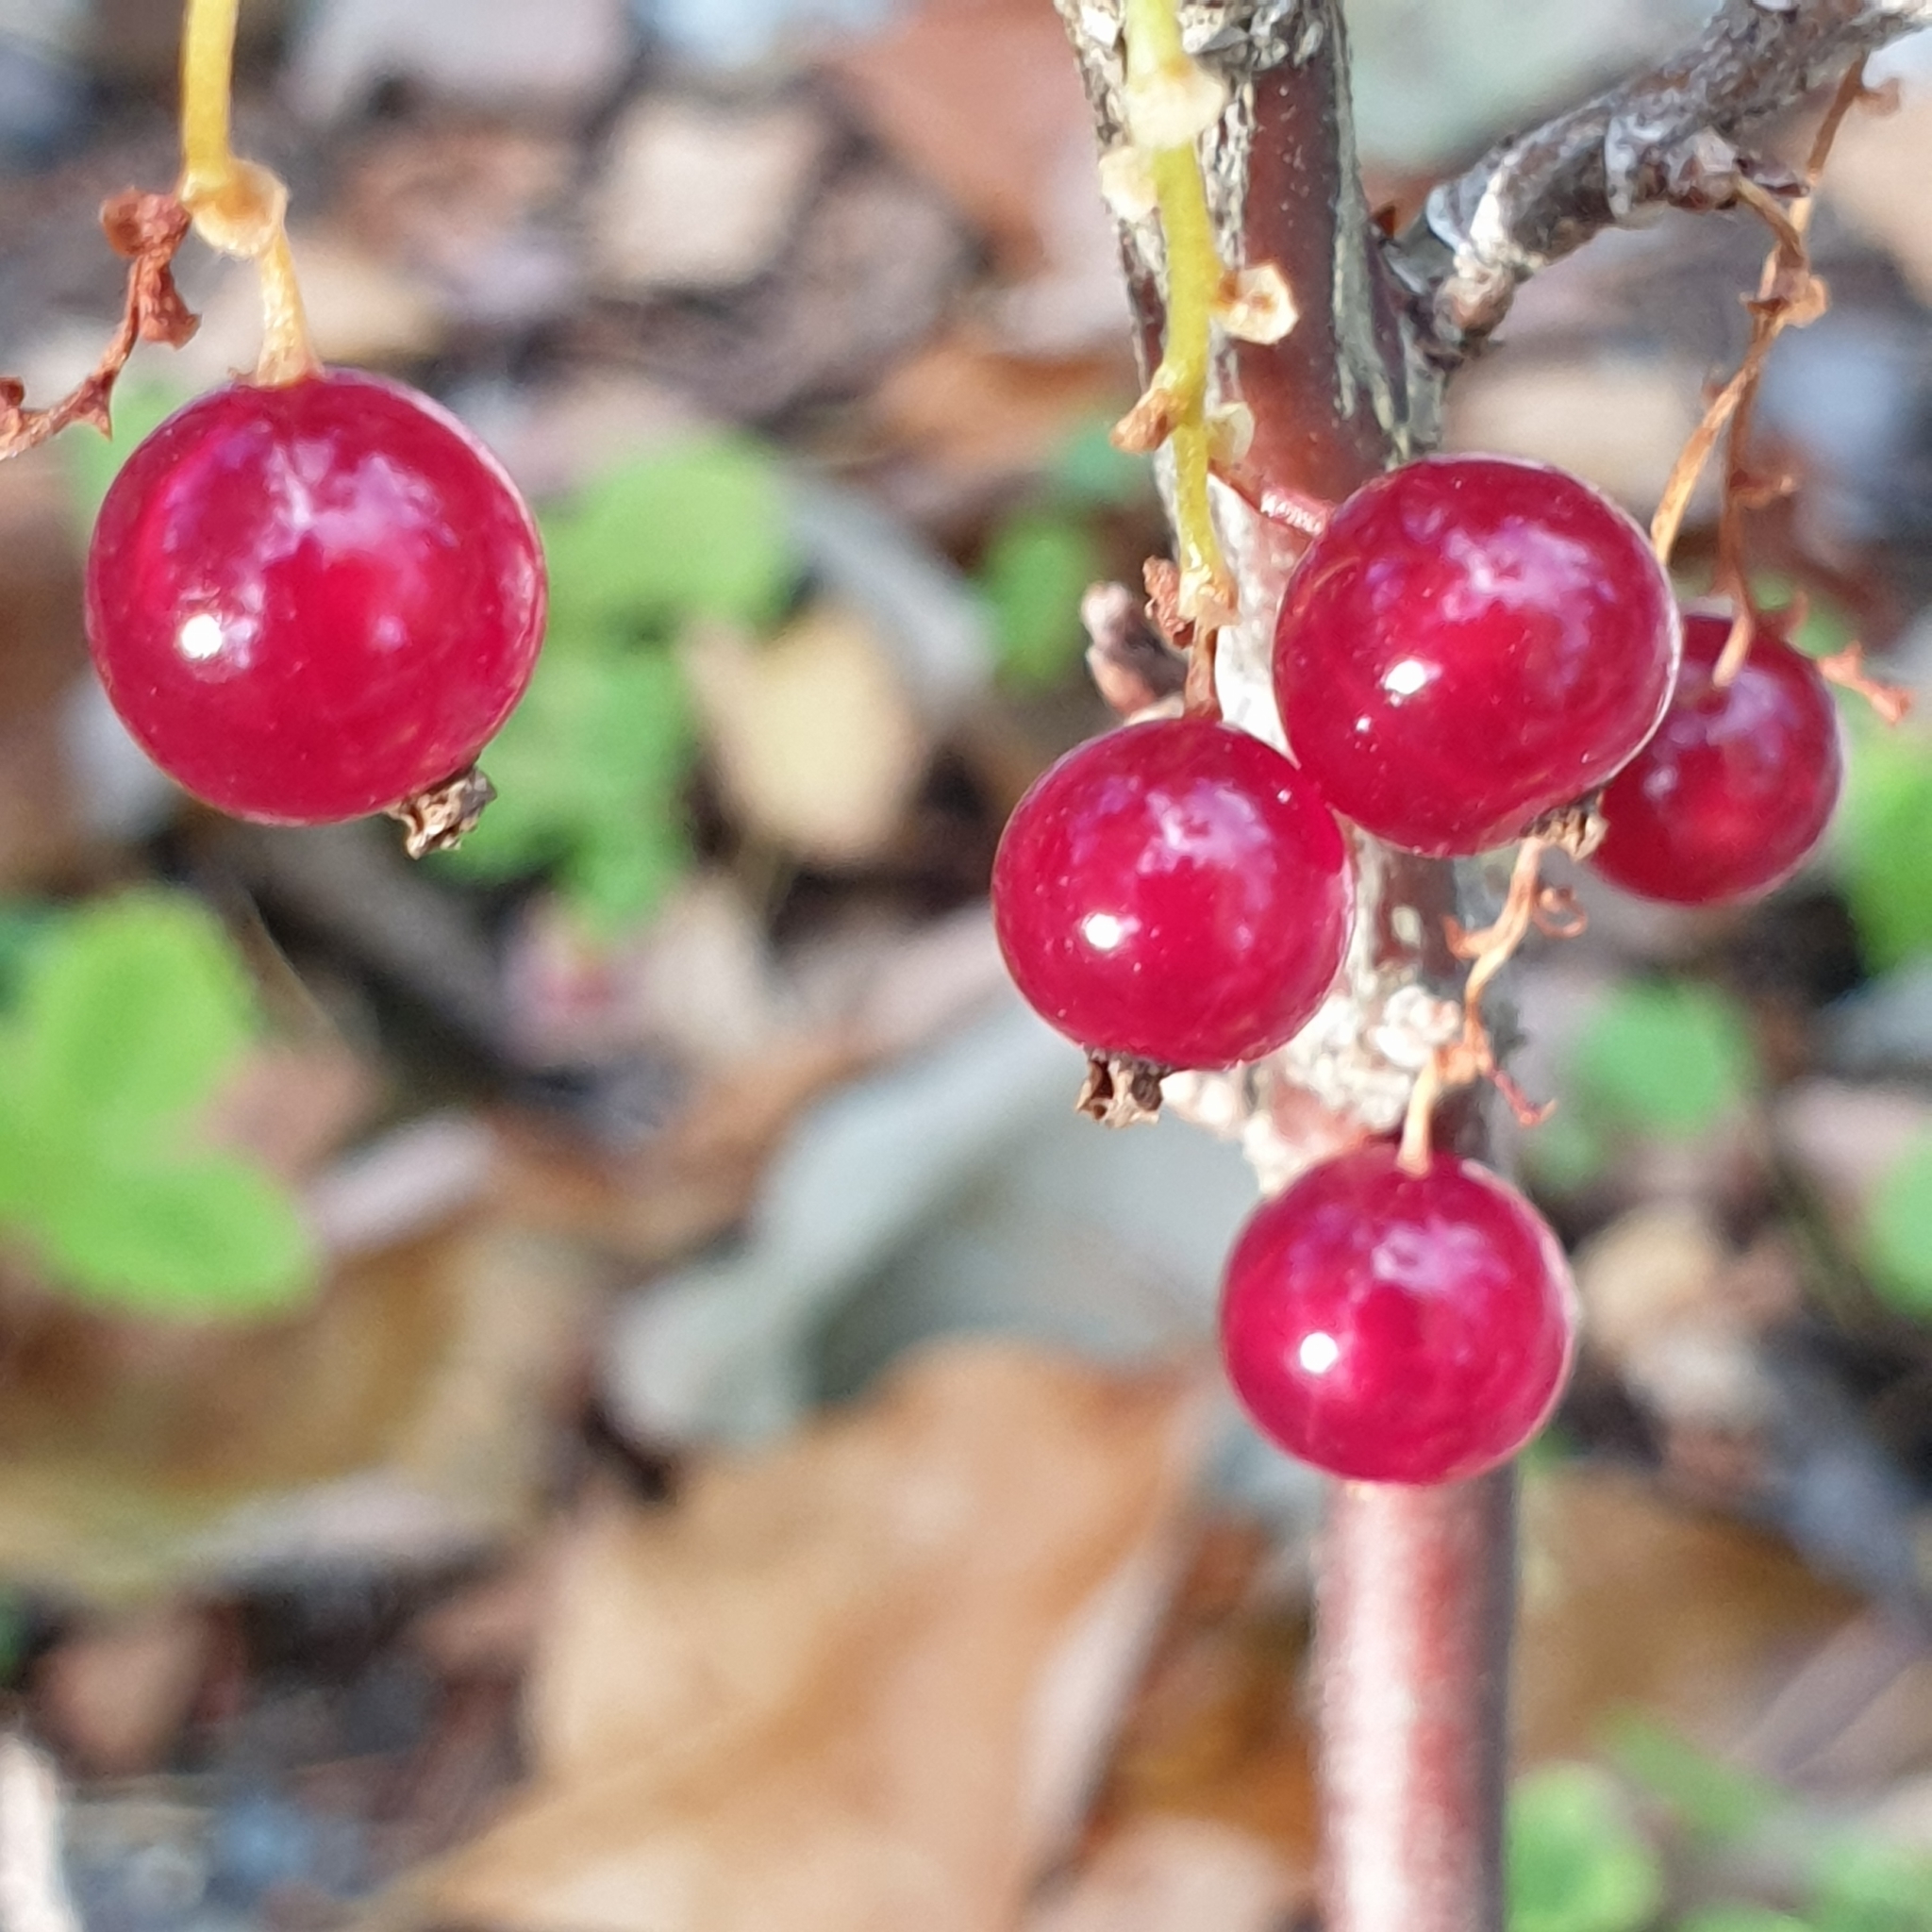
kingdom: Plantae
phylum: Tracheophyta
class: Magnoliopsida
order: Saxifragales
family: Grossulariaceae
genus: Ribes
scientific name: Ribes rubrum
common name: Red currant
